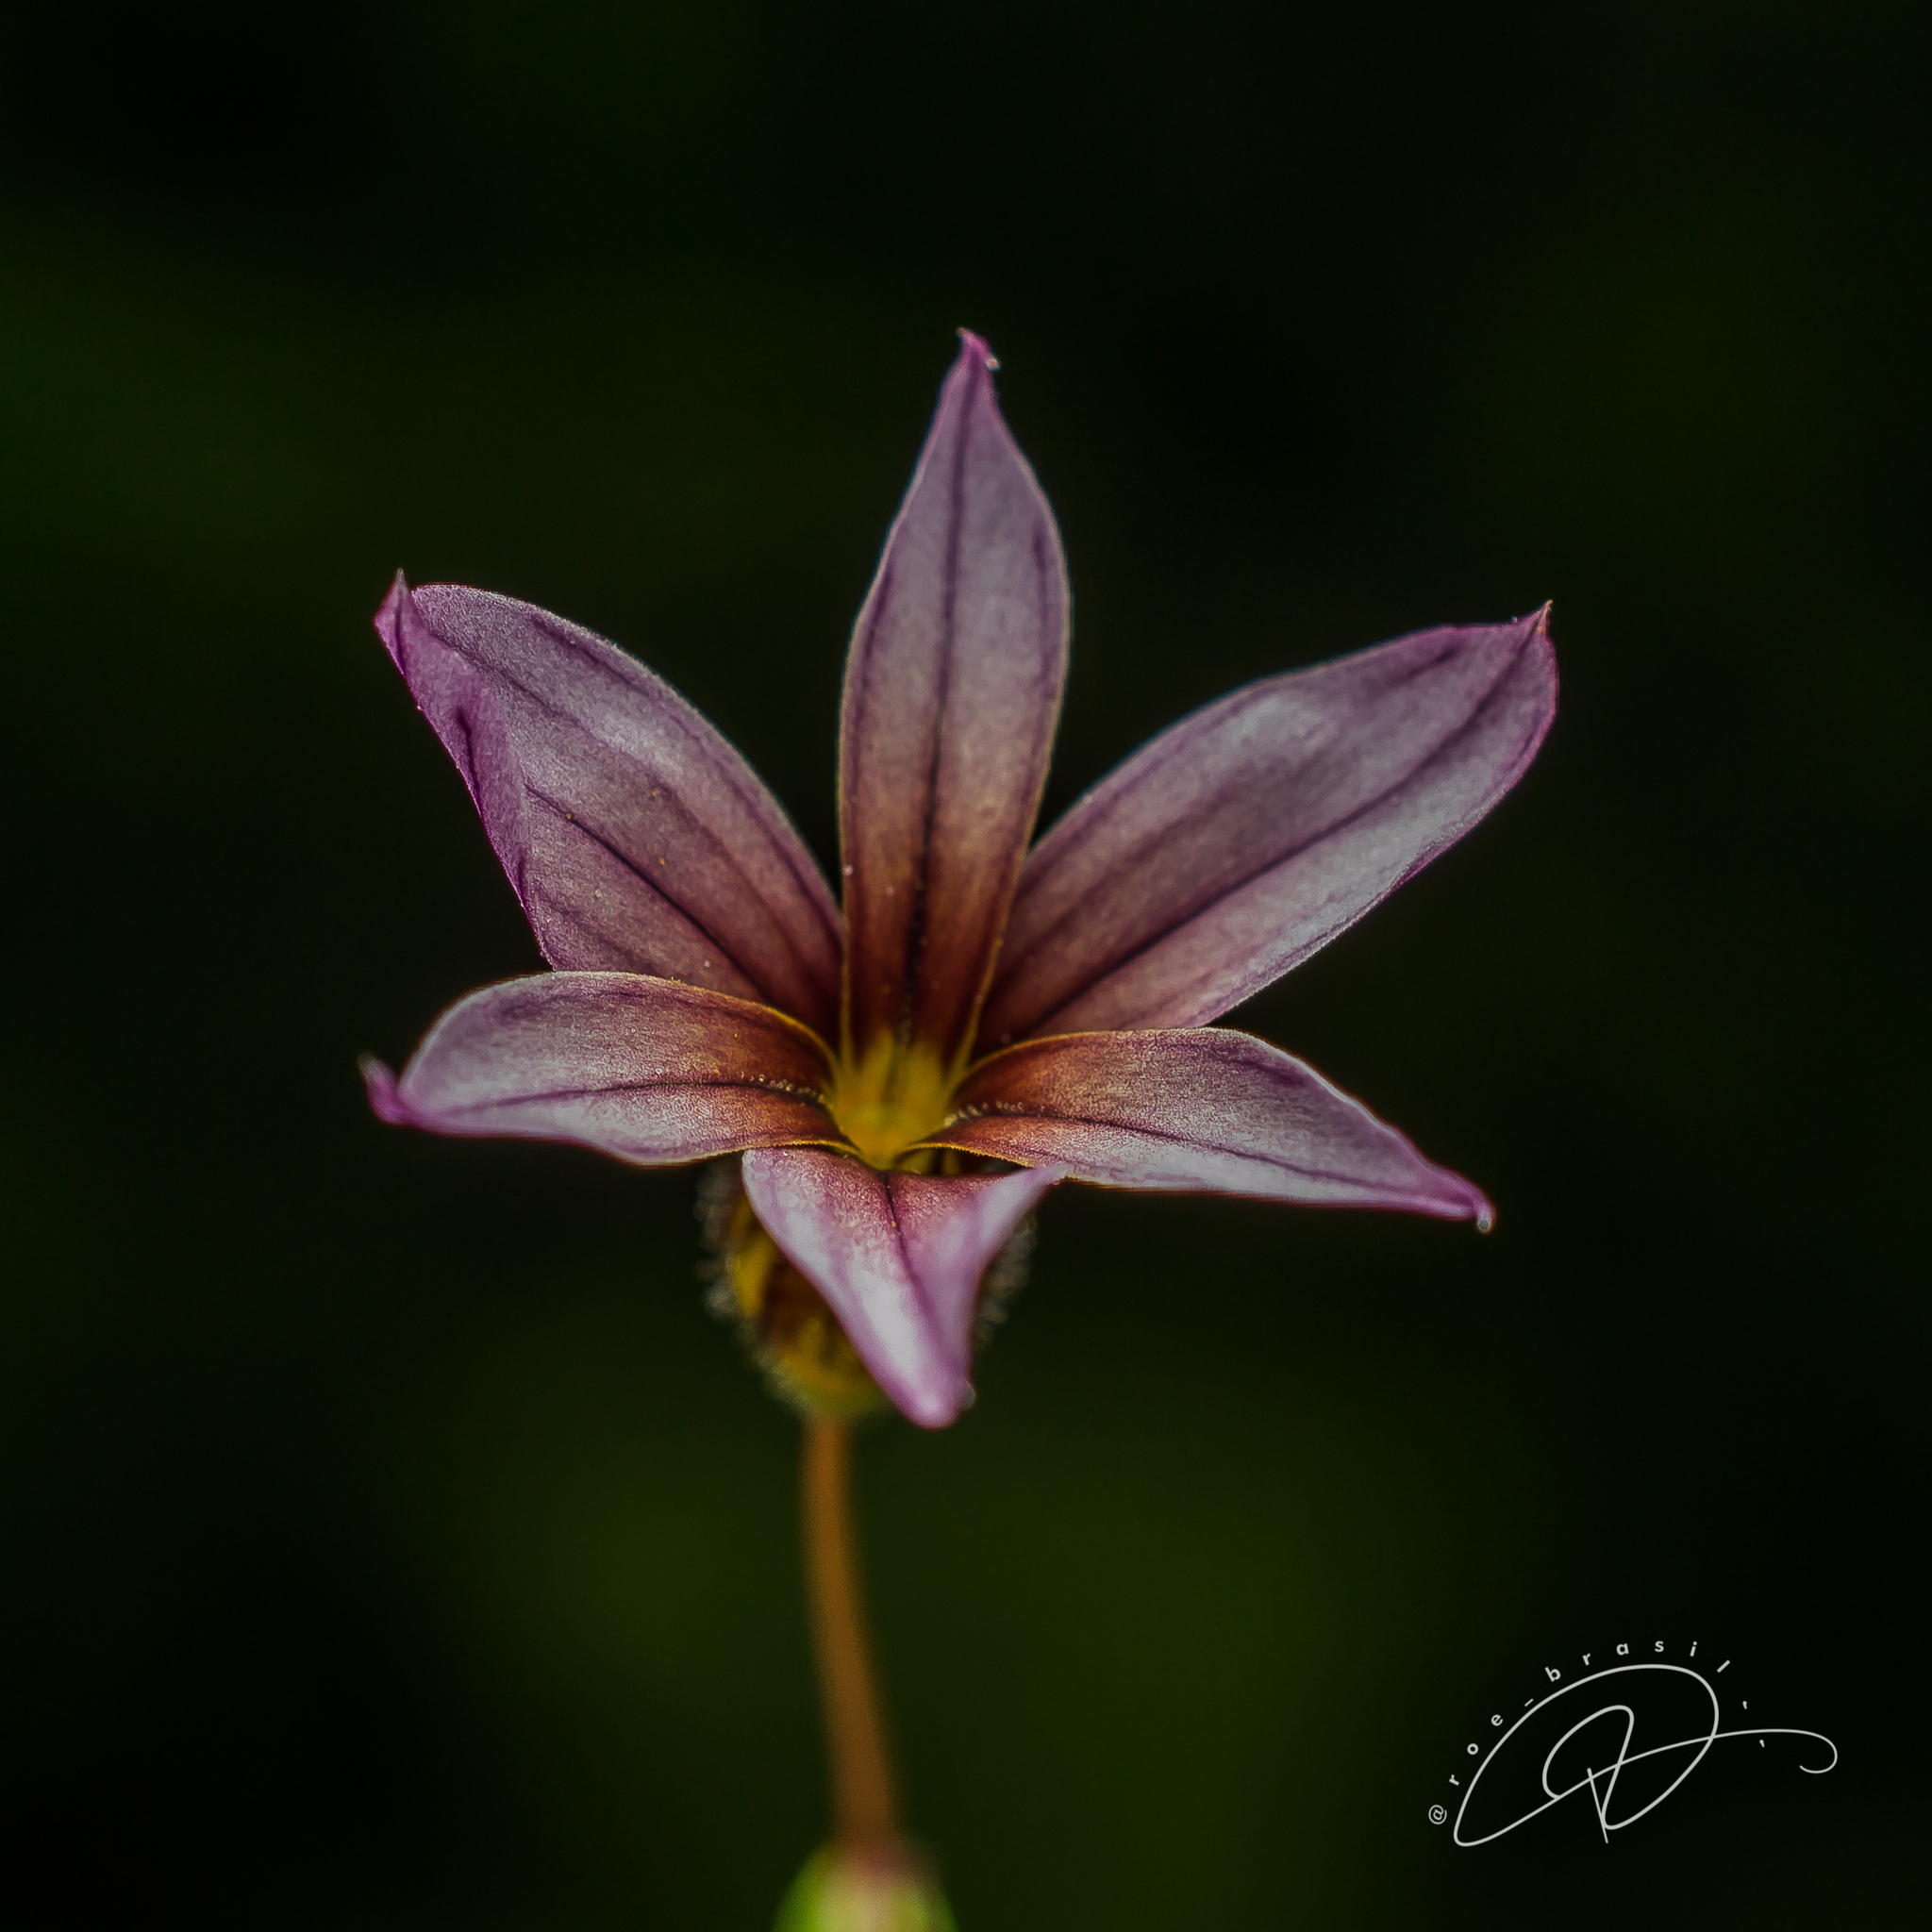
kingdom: Plantae
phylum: Tracheophyta
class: Liliopsida
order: Asparagales
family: Iridaceae
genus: Sisyrinchium
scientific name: Sisyrinchium micranthum
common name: Bermuda pigroot
